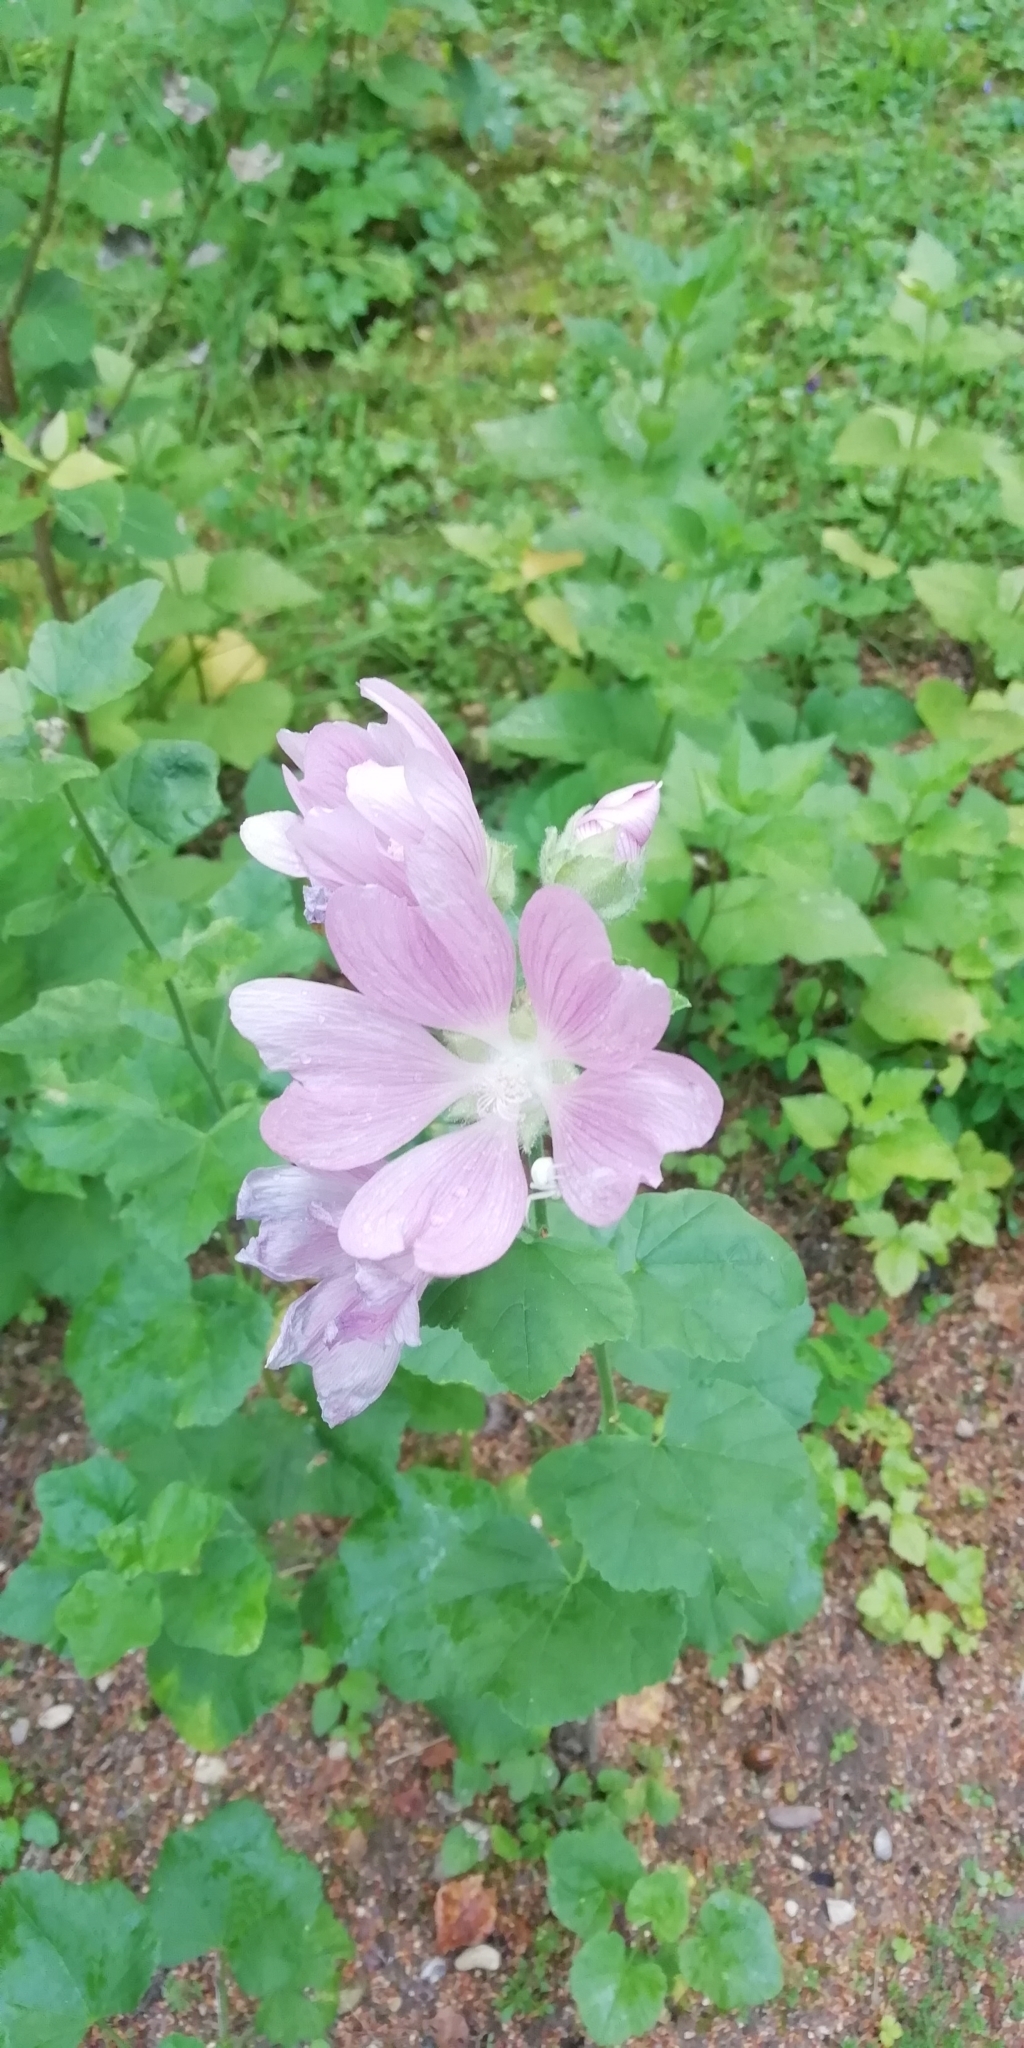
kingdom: Plantae
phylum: Tracheophyta
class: Magnoliopsida
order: Malvales
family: Malvaceae
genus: Malva
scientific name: Malva alcea
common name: Greater musk-mallow
